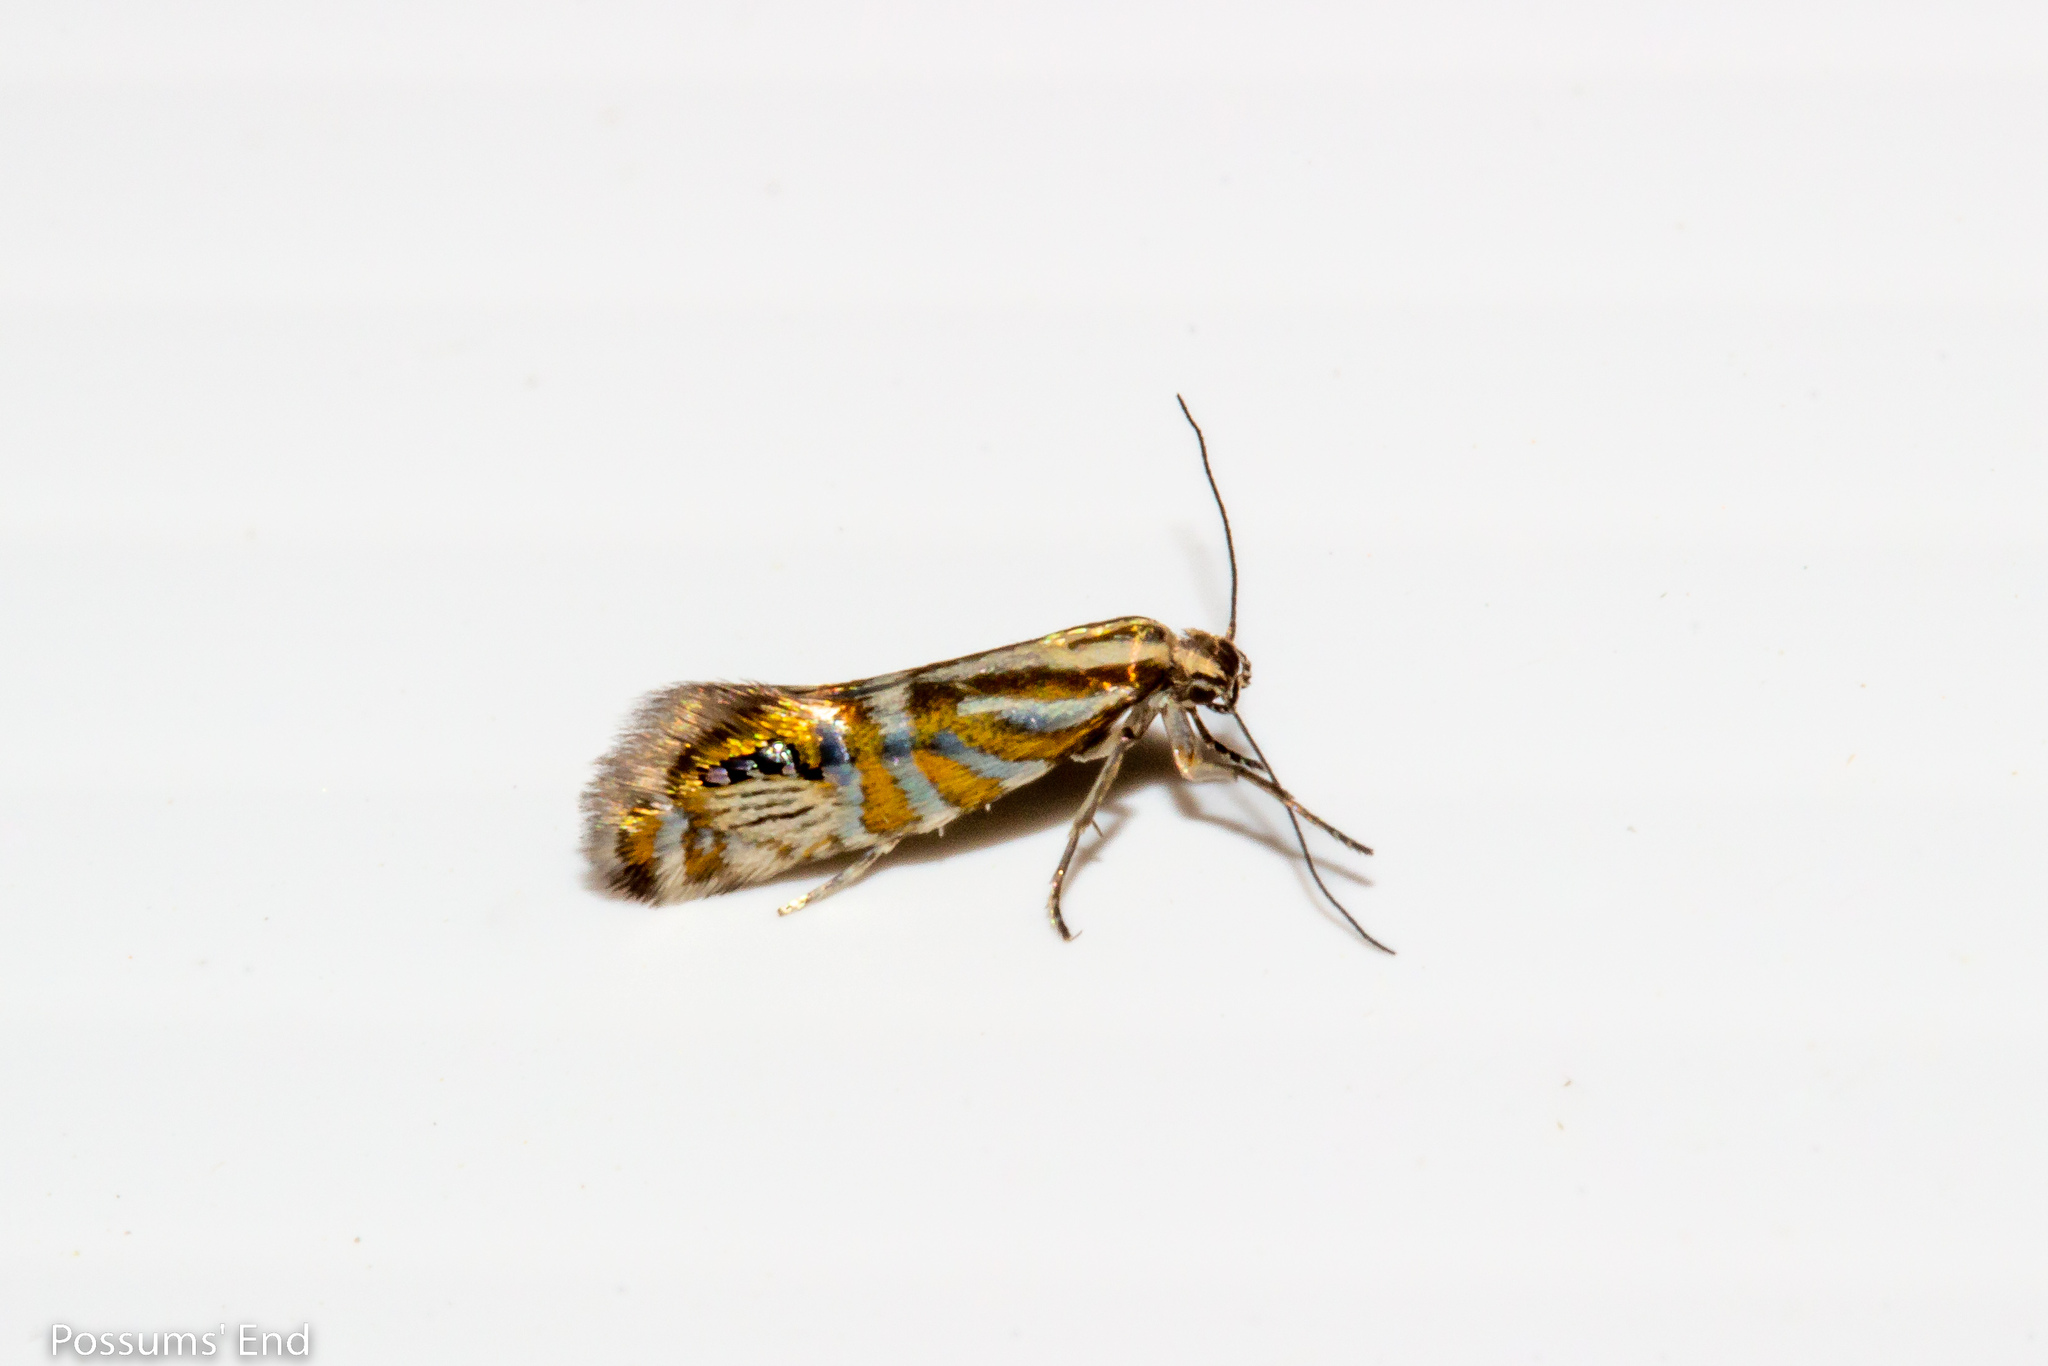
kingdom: Animalia
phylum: Arthropoda
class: Insecta
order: Lepidoptera
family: Glyphipterigidae
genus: Glyphipterix
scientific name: Glyphipterix triselena
